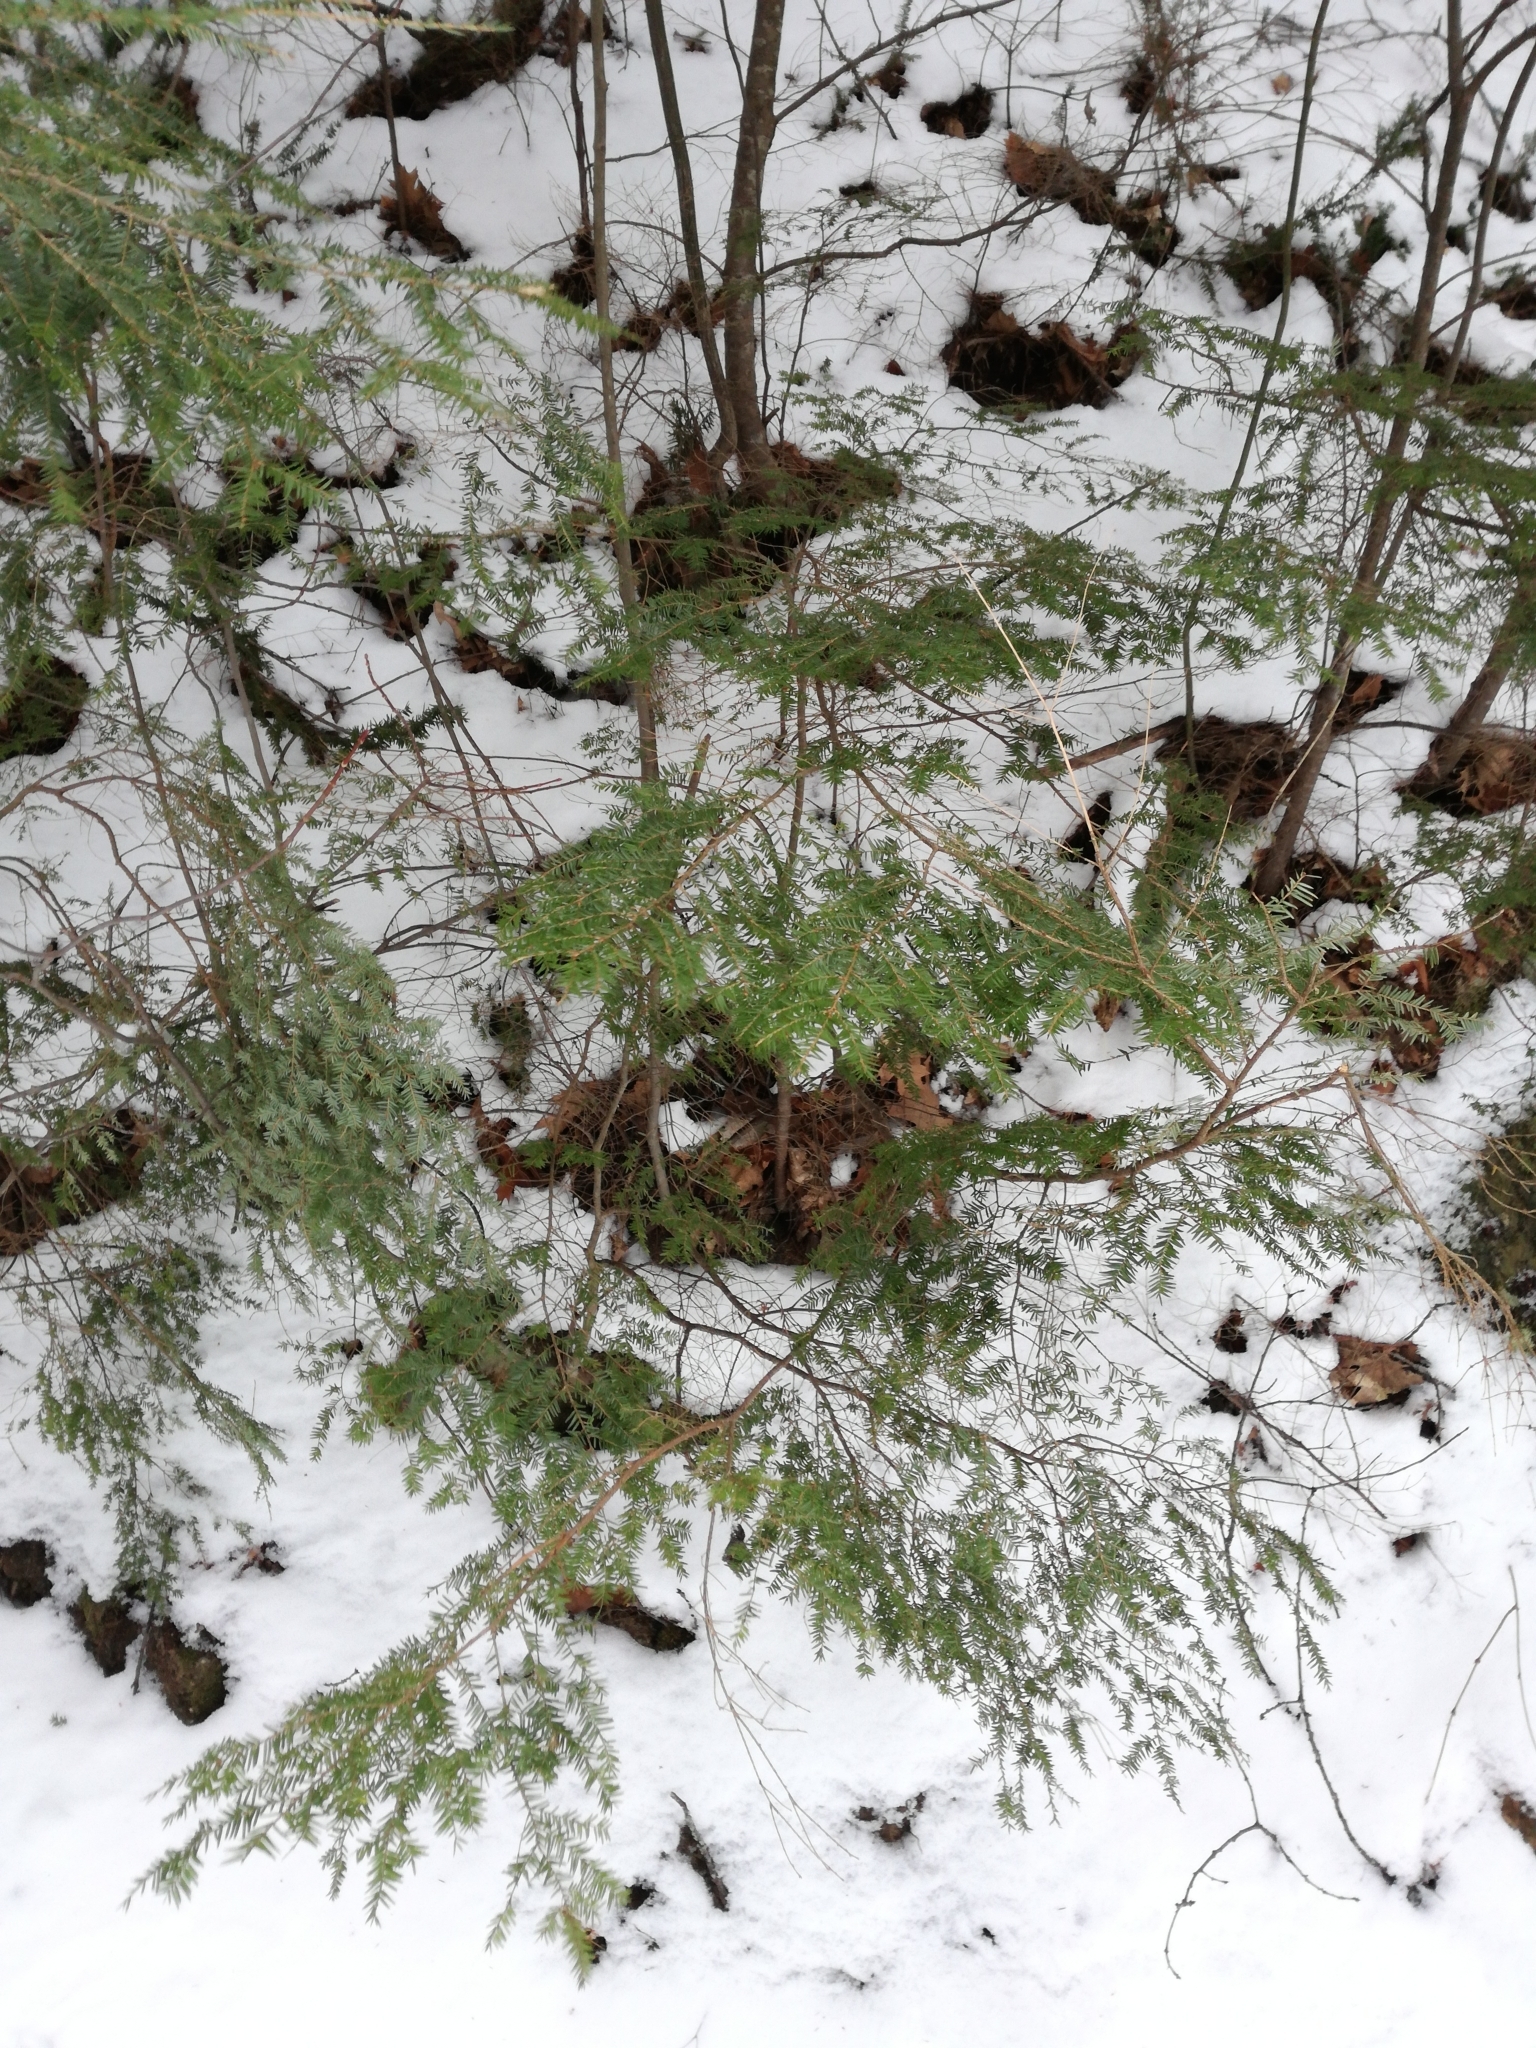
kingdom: Plantae
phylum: Tracheophyta
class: Pinopsida
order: Pinales
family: Pinaceae
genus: Tsuga
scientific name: Tsuga canadensis
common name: Eastern hemlock
